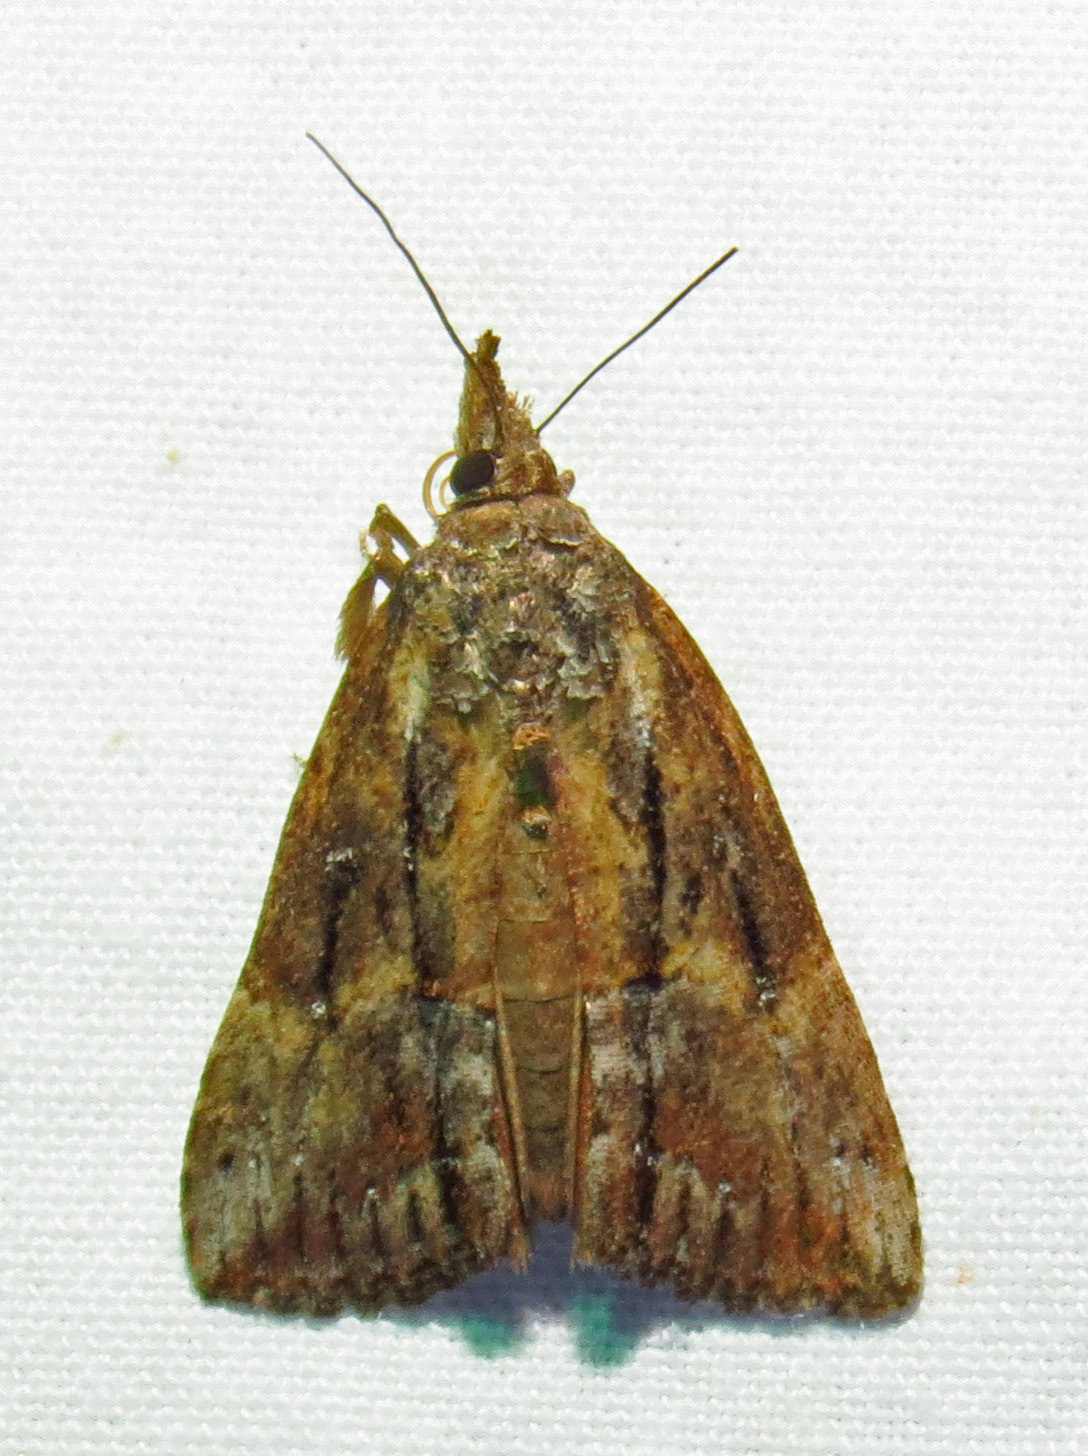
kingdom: Animalia
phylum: Arthropoda
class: Insecta
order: Lepidoptera
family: Erebidae
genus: Hypena
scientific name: Hypena scabra
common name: Green cloverworm
